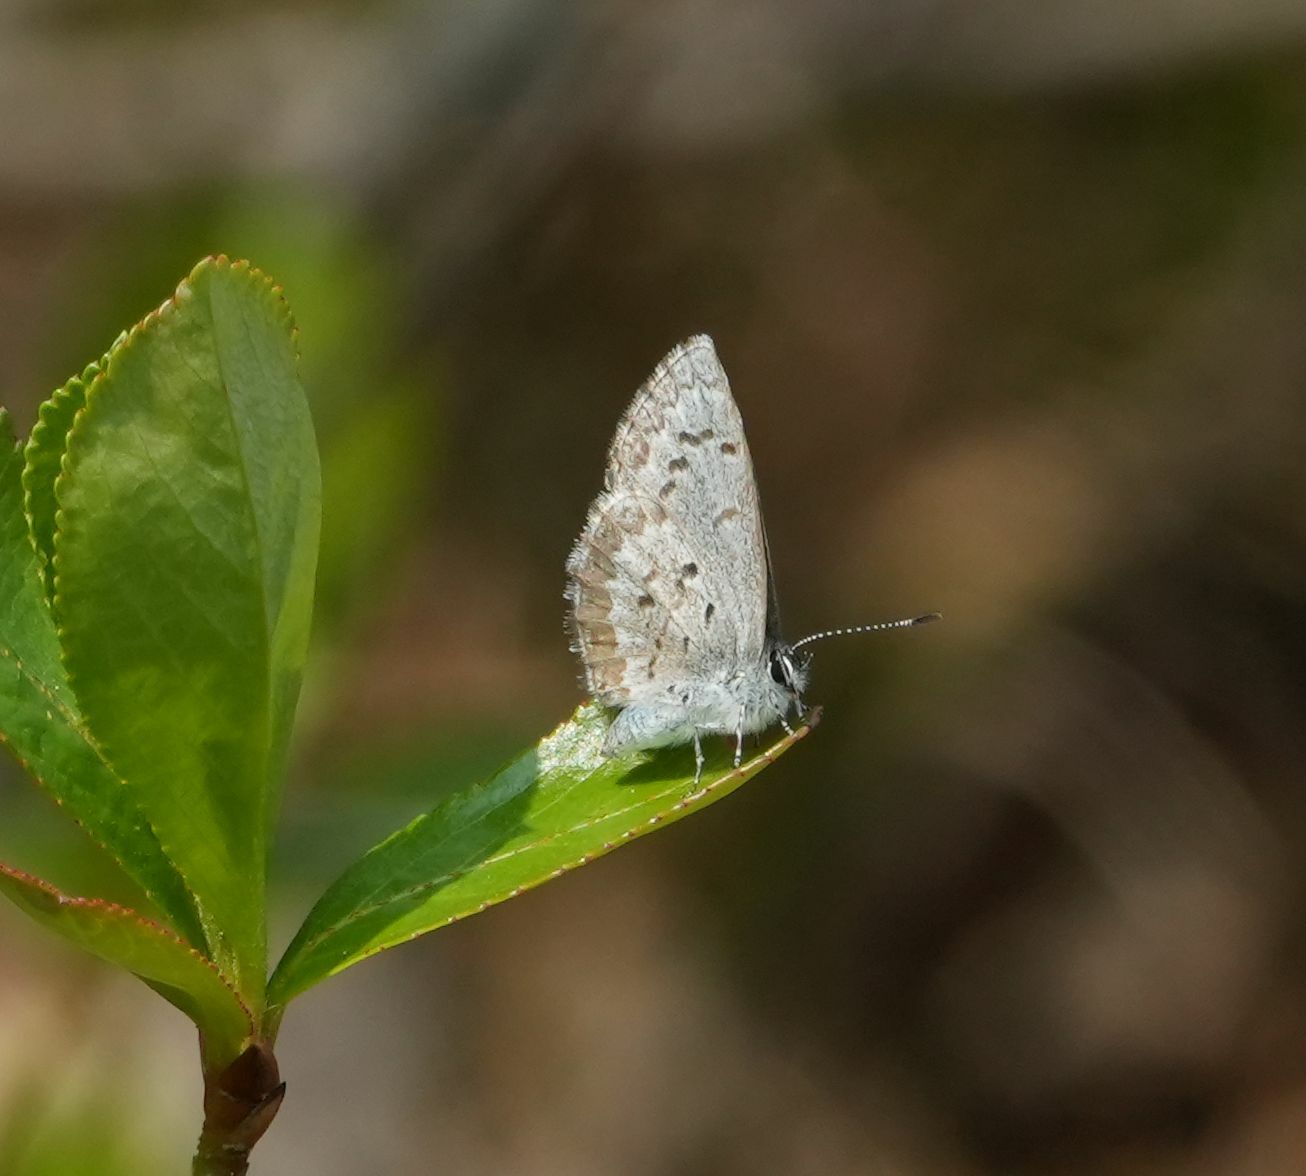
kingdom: Animalia
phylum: Arthropoda
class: Insecta
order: Lepidoptera
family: Lycaenidae
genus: Celastrina
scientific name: Celastrina lucia
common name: Lucia azure
